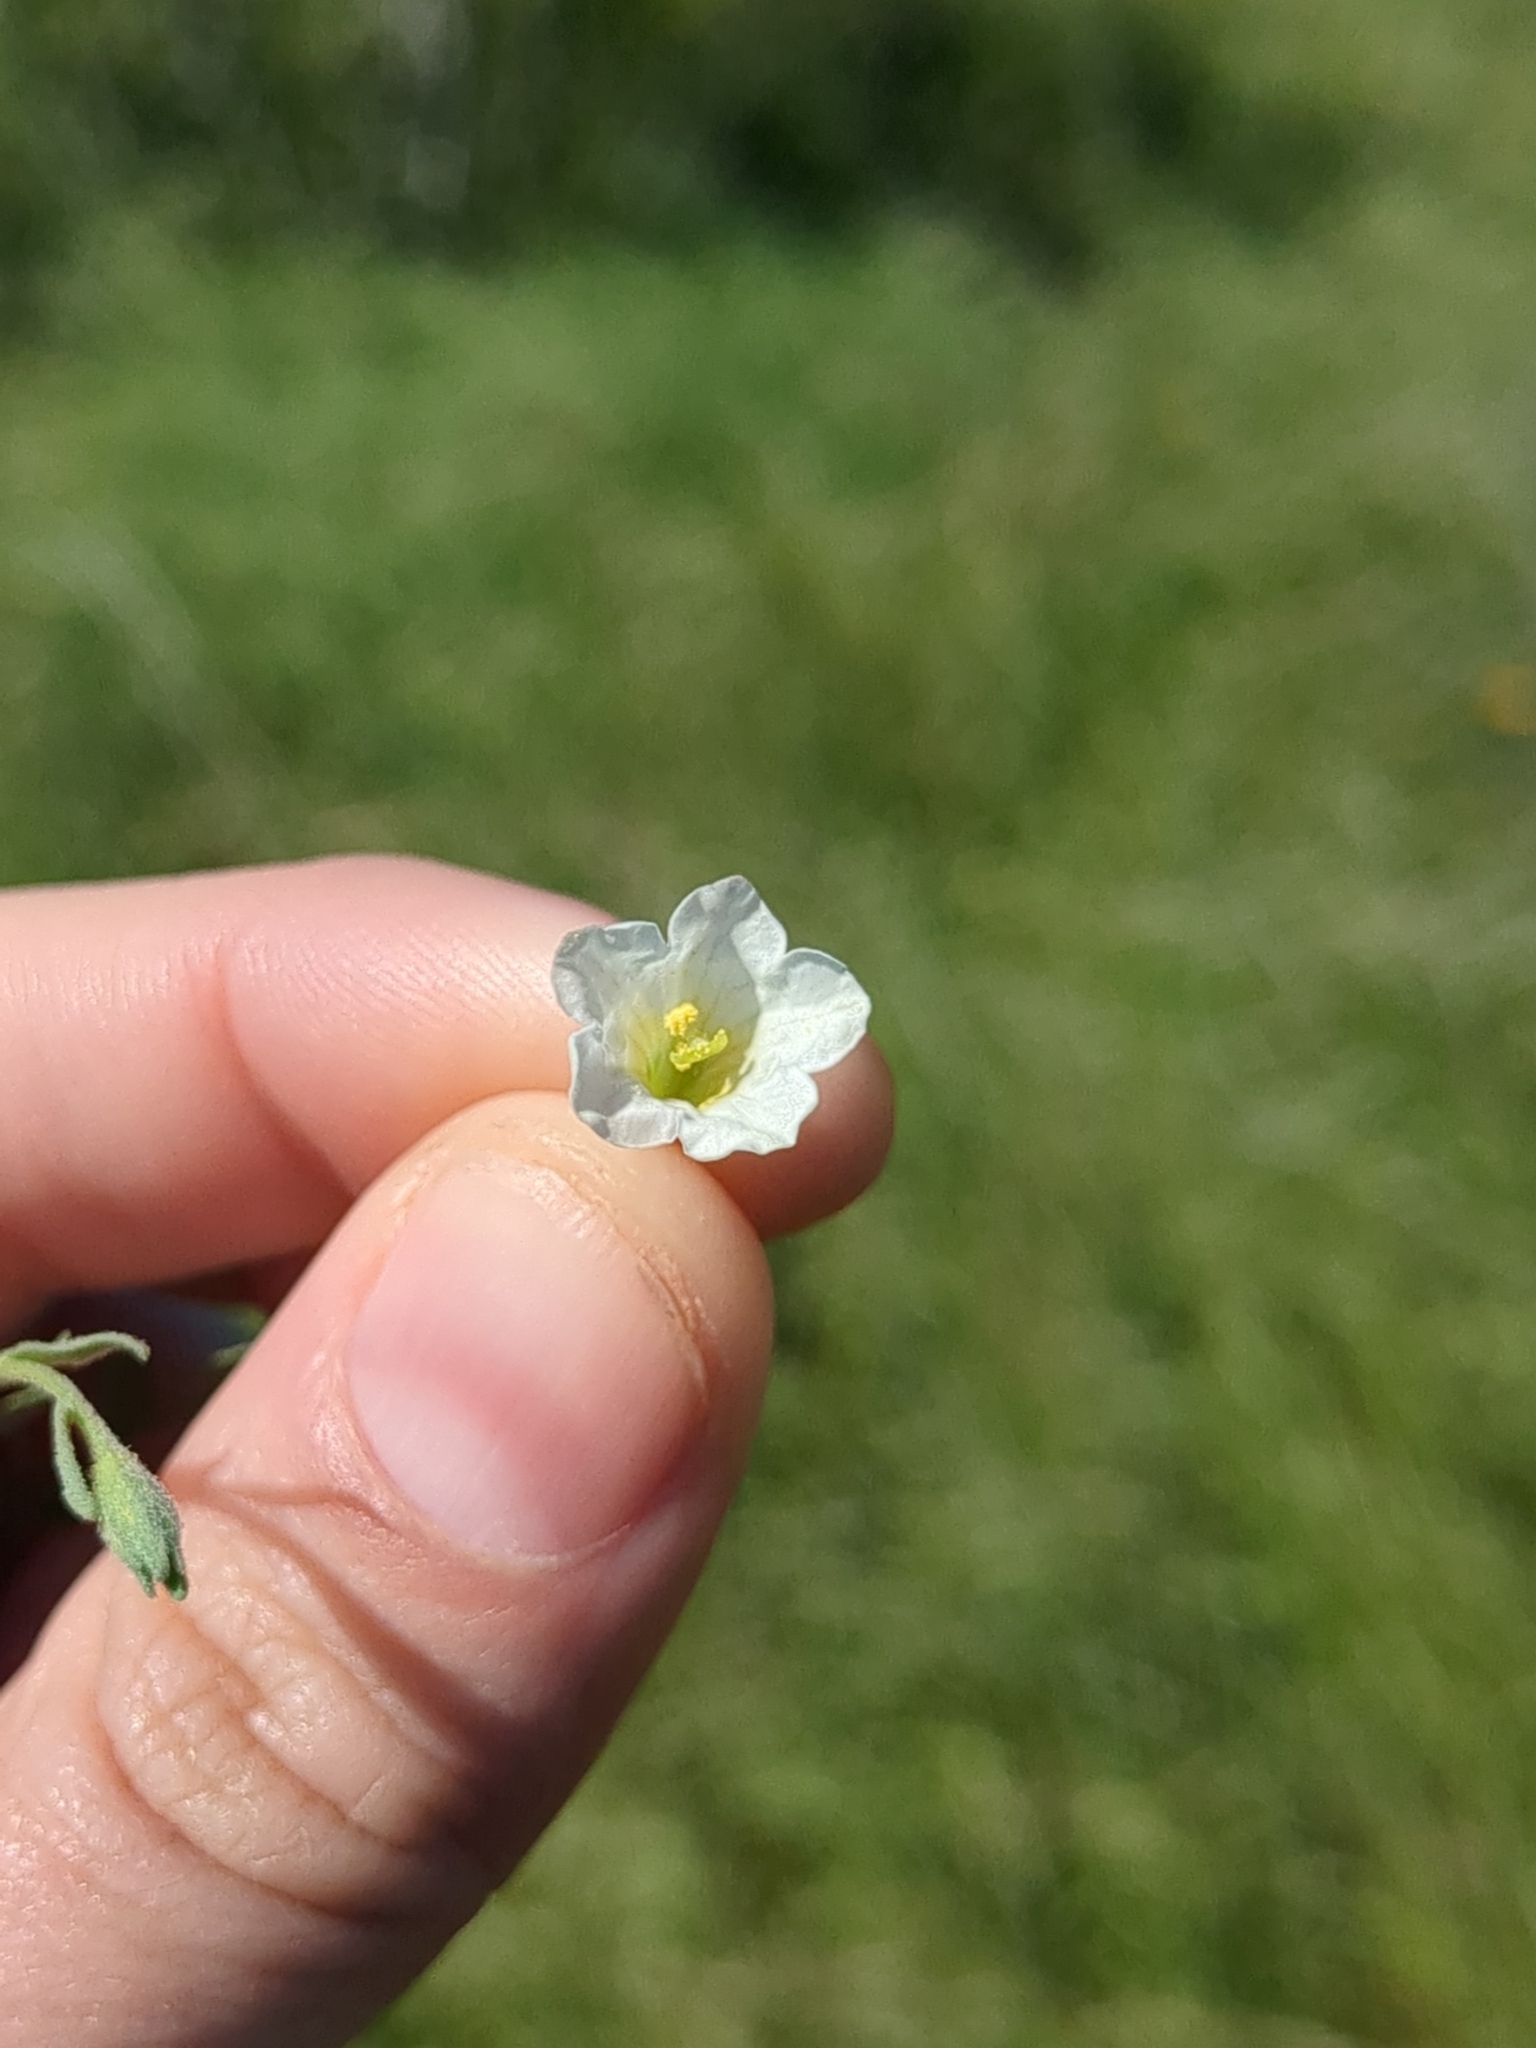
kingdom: Plantae
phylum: Tracheophyta
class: Magnoliopsida
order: Solanales
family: Solanaceae
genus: Salpiglossis
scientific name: Salpiglossis erecta
